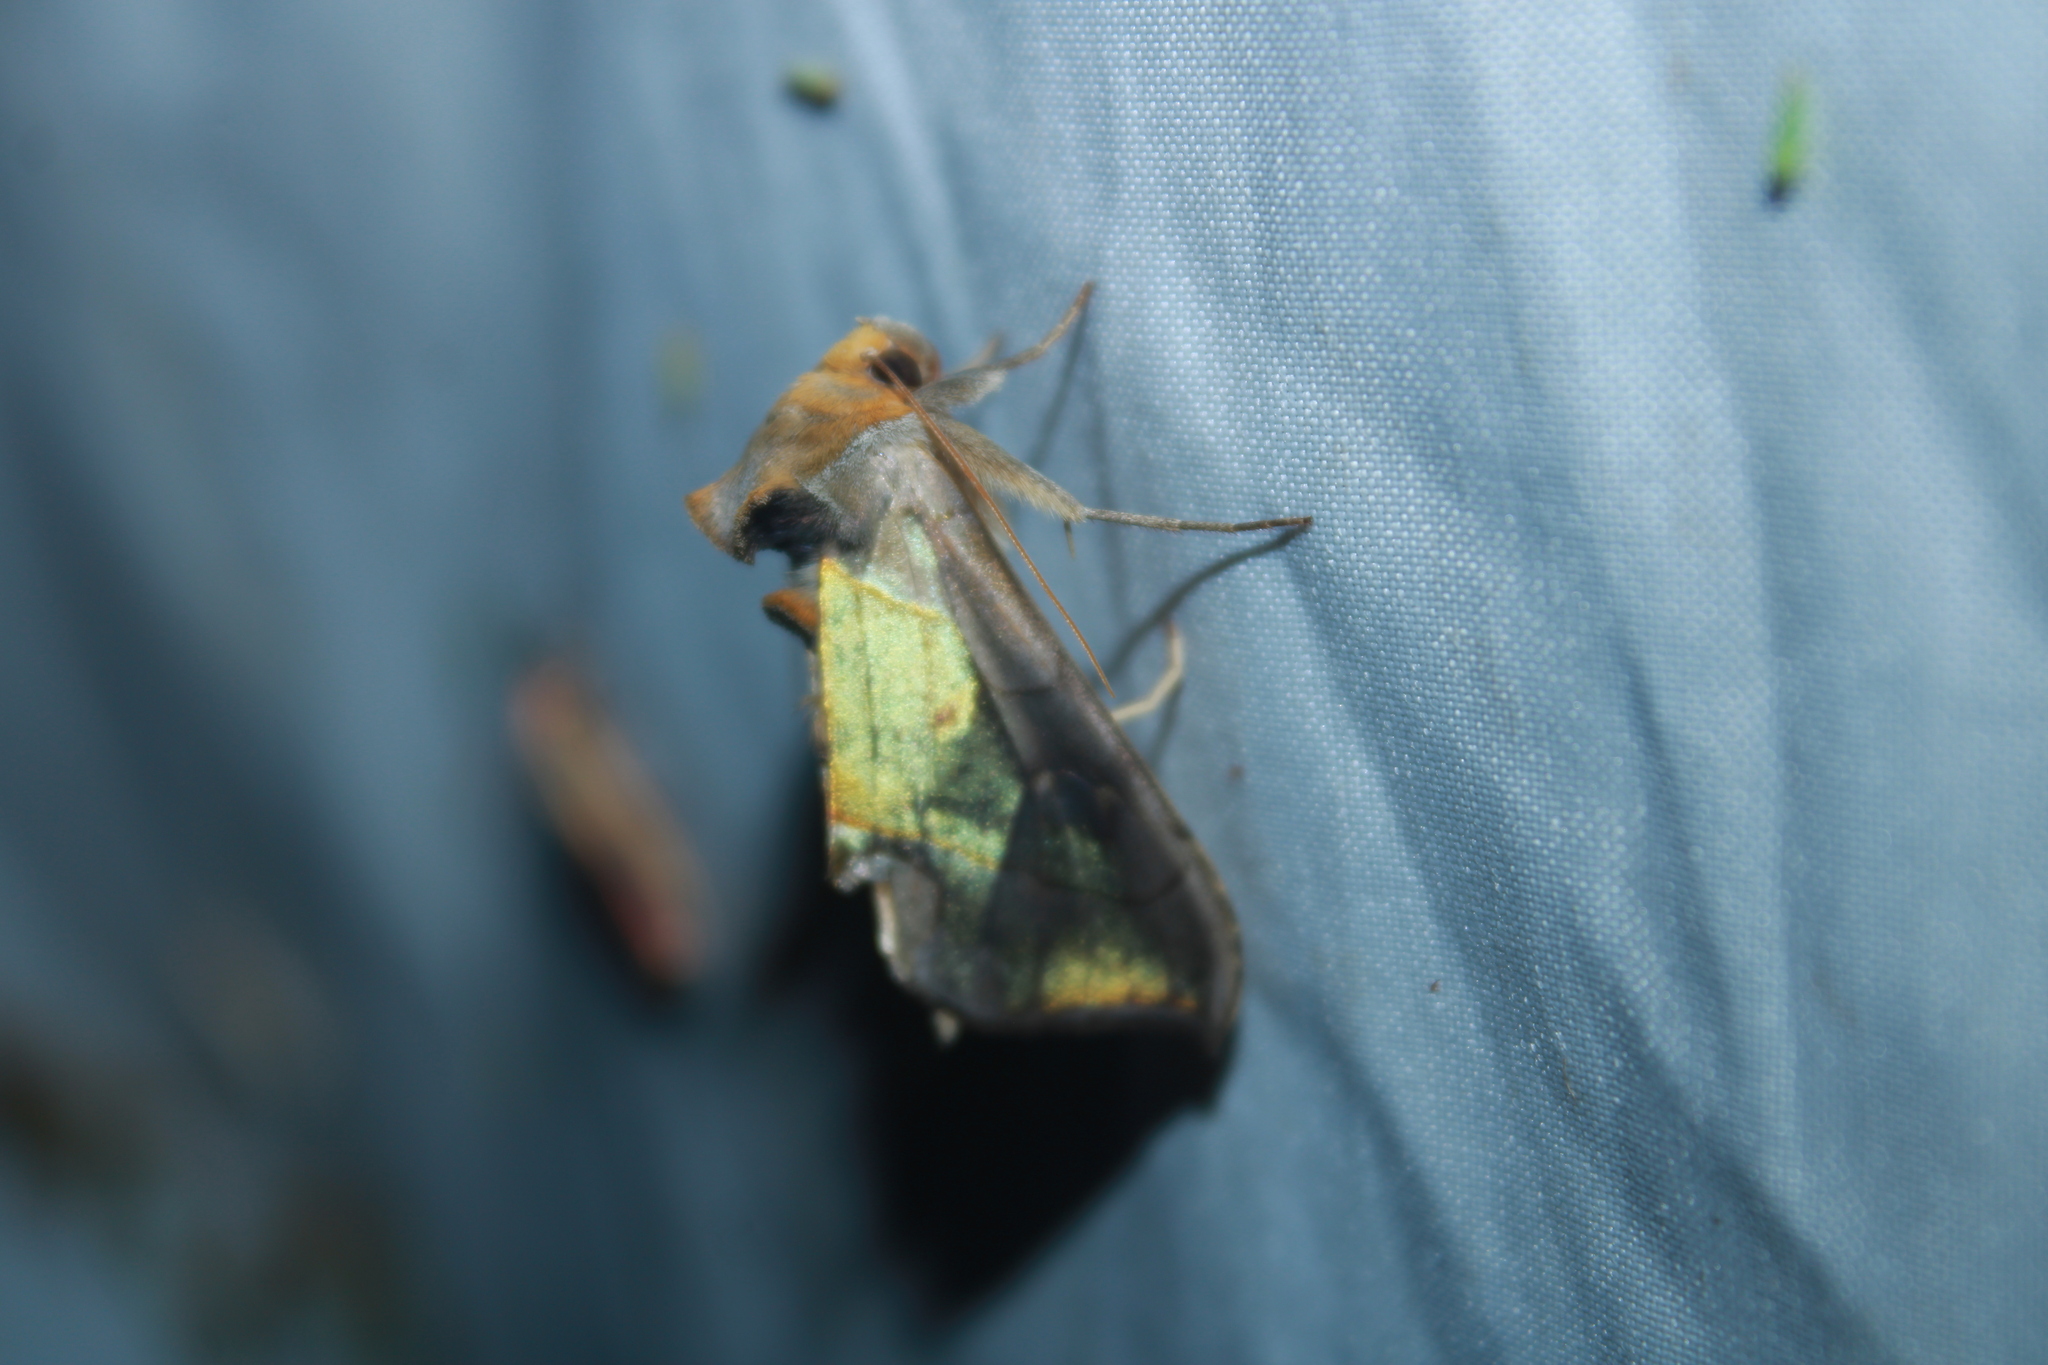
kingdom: Animalia
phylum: Arthropoda
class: Insecta
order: Lepidoptera
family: Noctuidae
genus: Diachrysia
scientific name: Diachrysia balluca
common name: Green-patched looper moth
